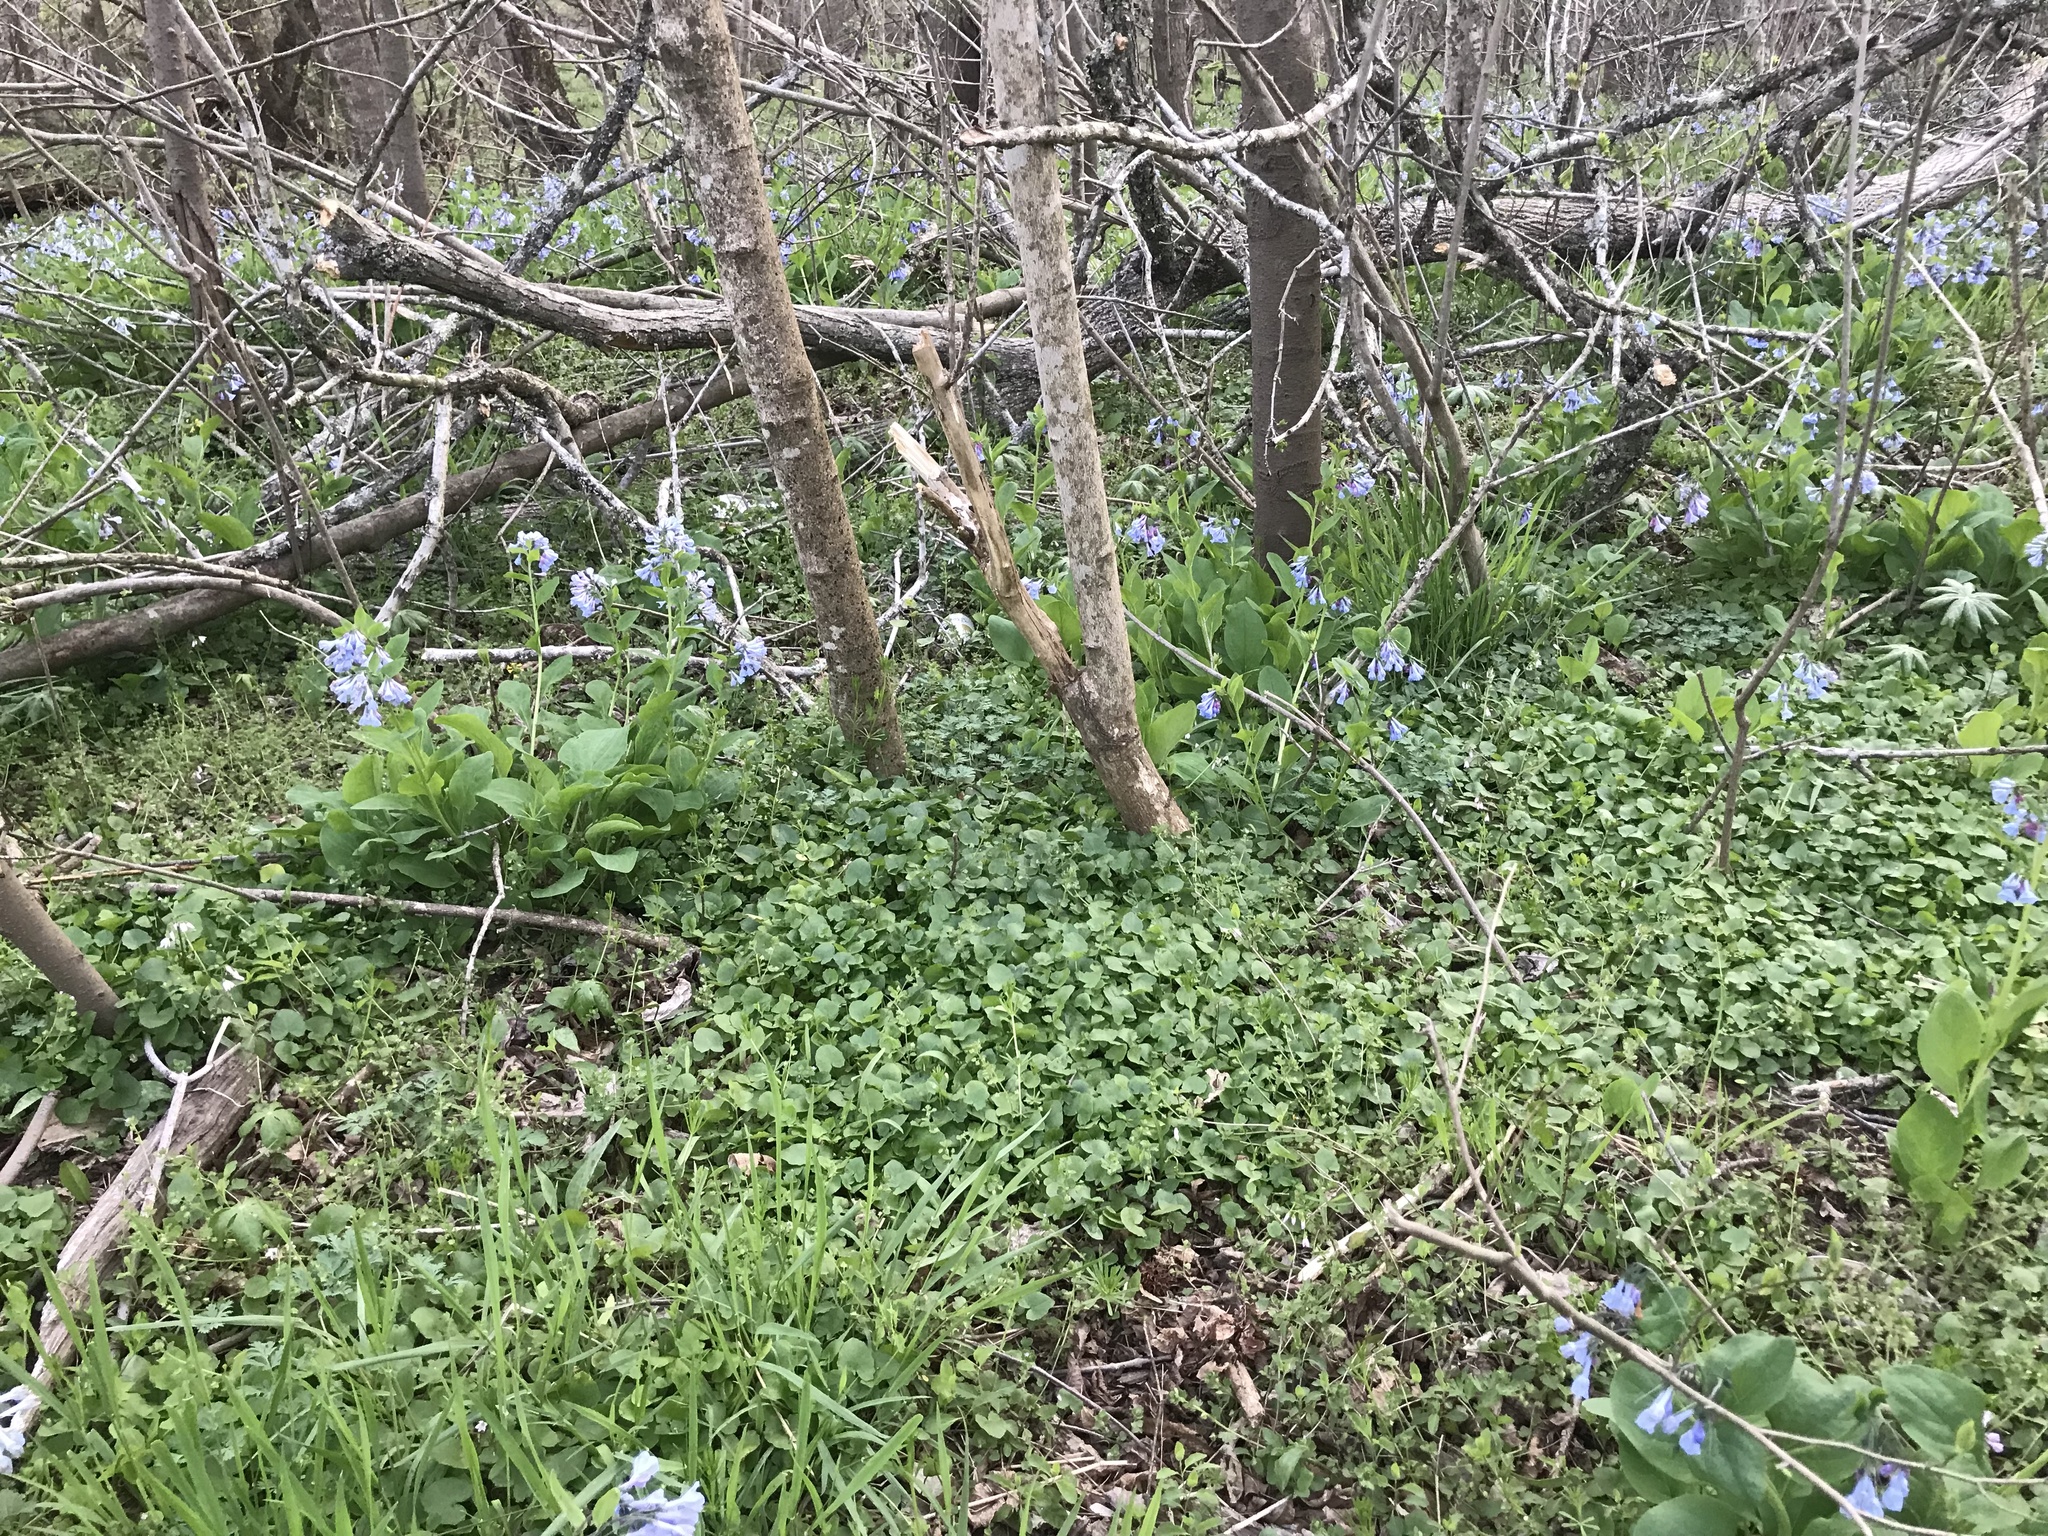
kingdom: Plantae
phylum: Tracheophyta
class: Magnoliopsida
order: Boraginales
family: Boraginaceae
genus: Mertensia
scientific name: Mertensia virginica
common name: Virginia bluebells
